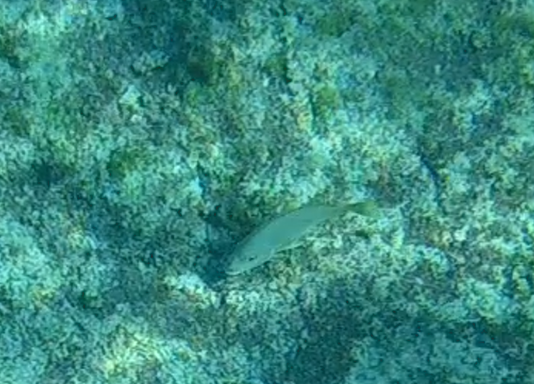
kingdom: Animalia
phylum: Chordata
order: Perciformes
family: Lutjanidae
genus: Lutjanus
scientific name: Lutjanus
